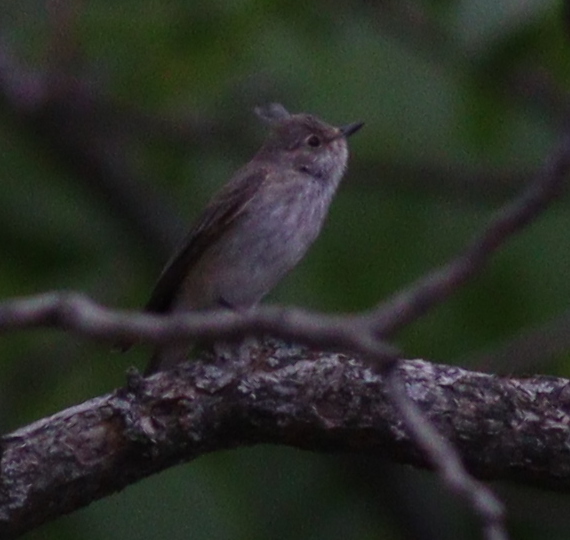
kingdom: Animalia
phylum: Chordata
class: Aves
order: Passeriformes
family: Muscicapidae
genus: Muscicapa
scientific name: Muscicapa striata
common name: Spotted flycatcher
